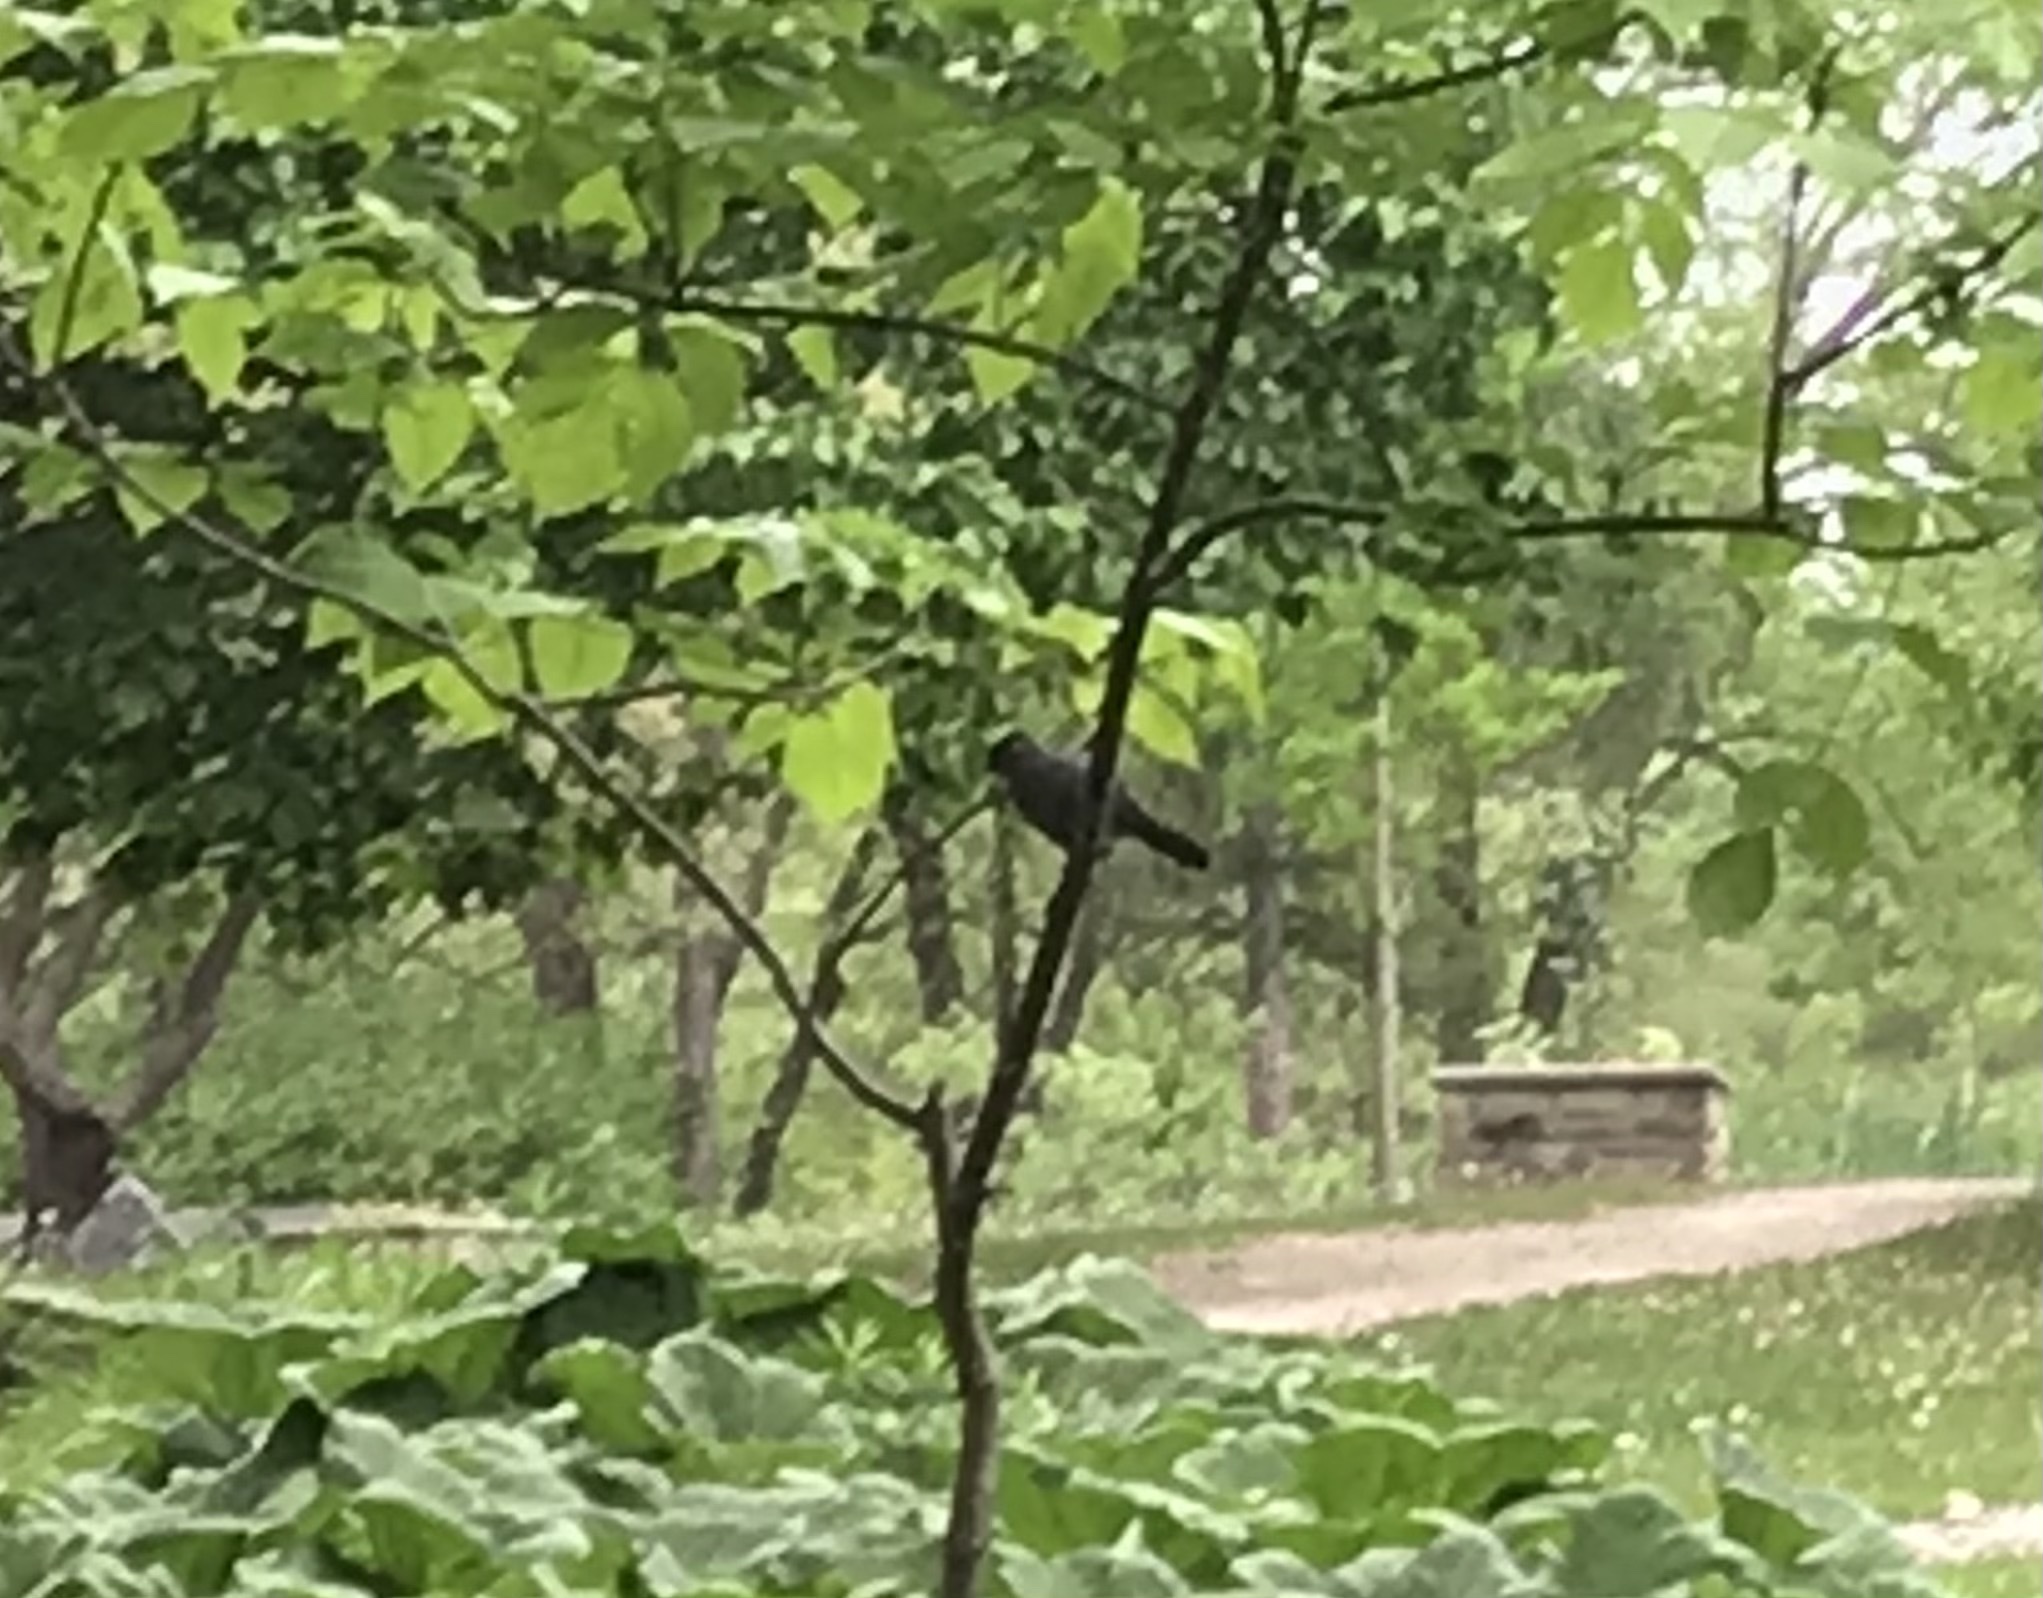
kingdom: Animalia
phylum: Chordata
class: Aves
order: Passeriformes
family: Mimidae
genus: Dumetella
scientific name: Dumetella carolinensis
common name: Gray catbird
